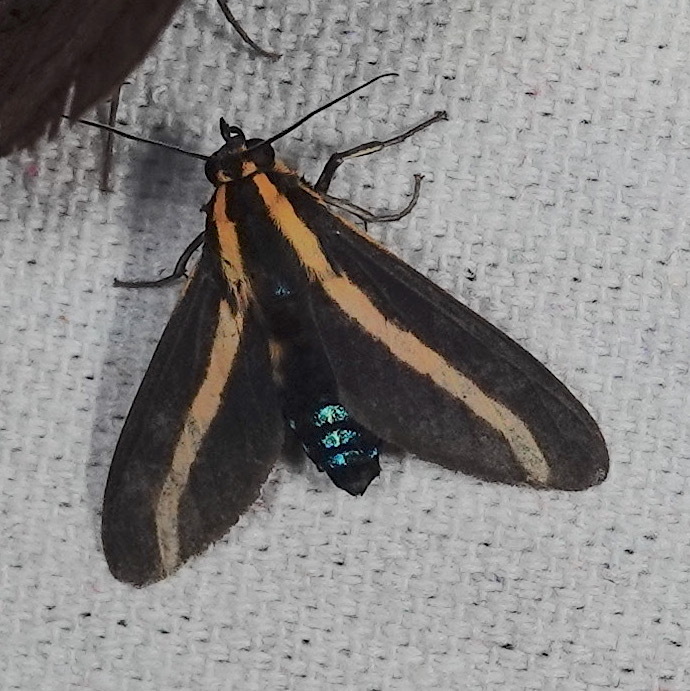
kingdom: Animalia
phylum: Arthropoda
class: Insecta
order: Lepidoptera
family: Erebidae
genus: Ormetica
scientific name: Ormetica rosenbergi
